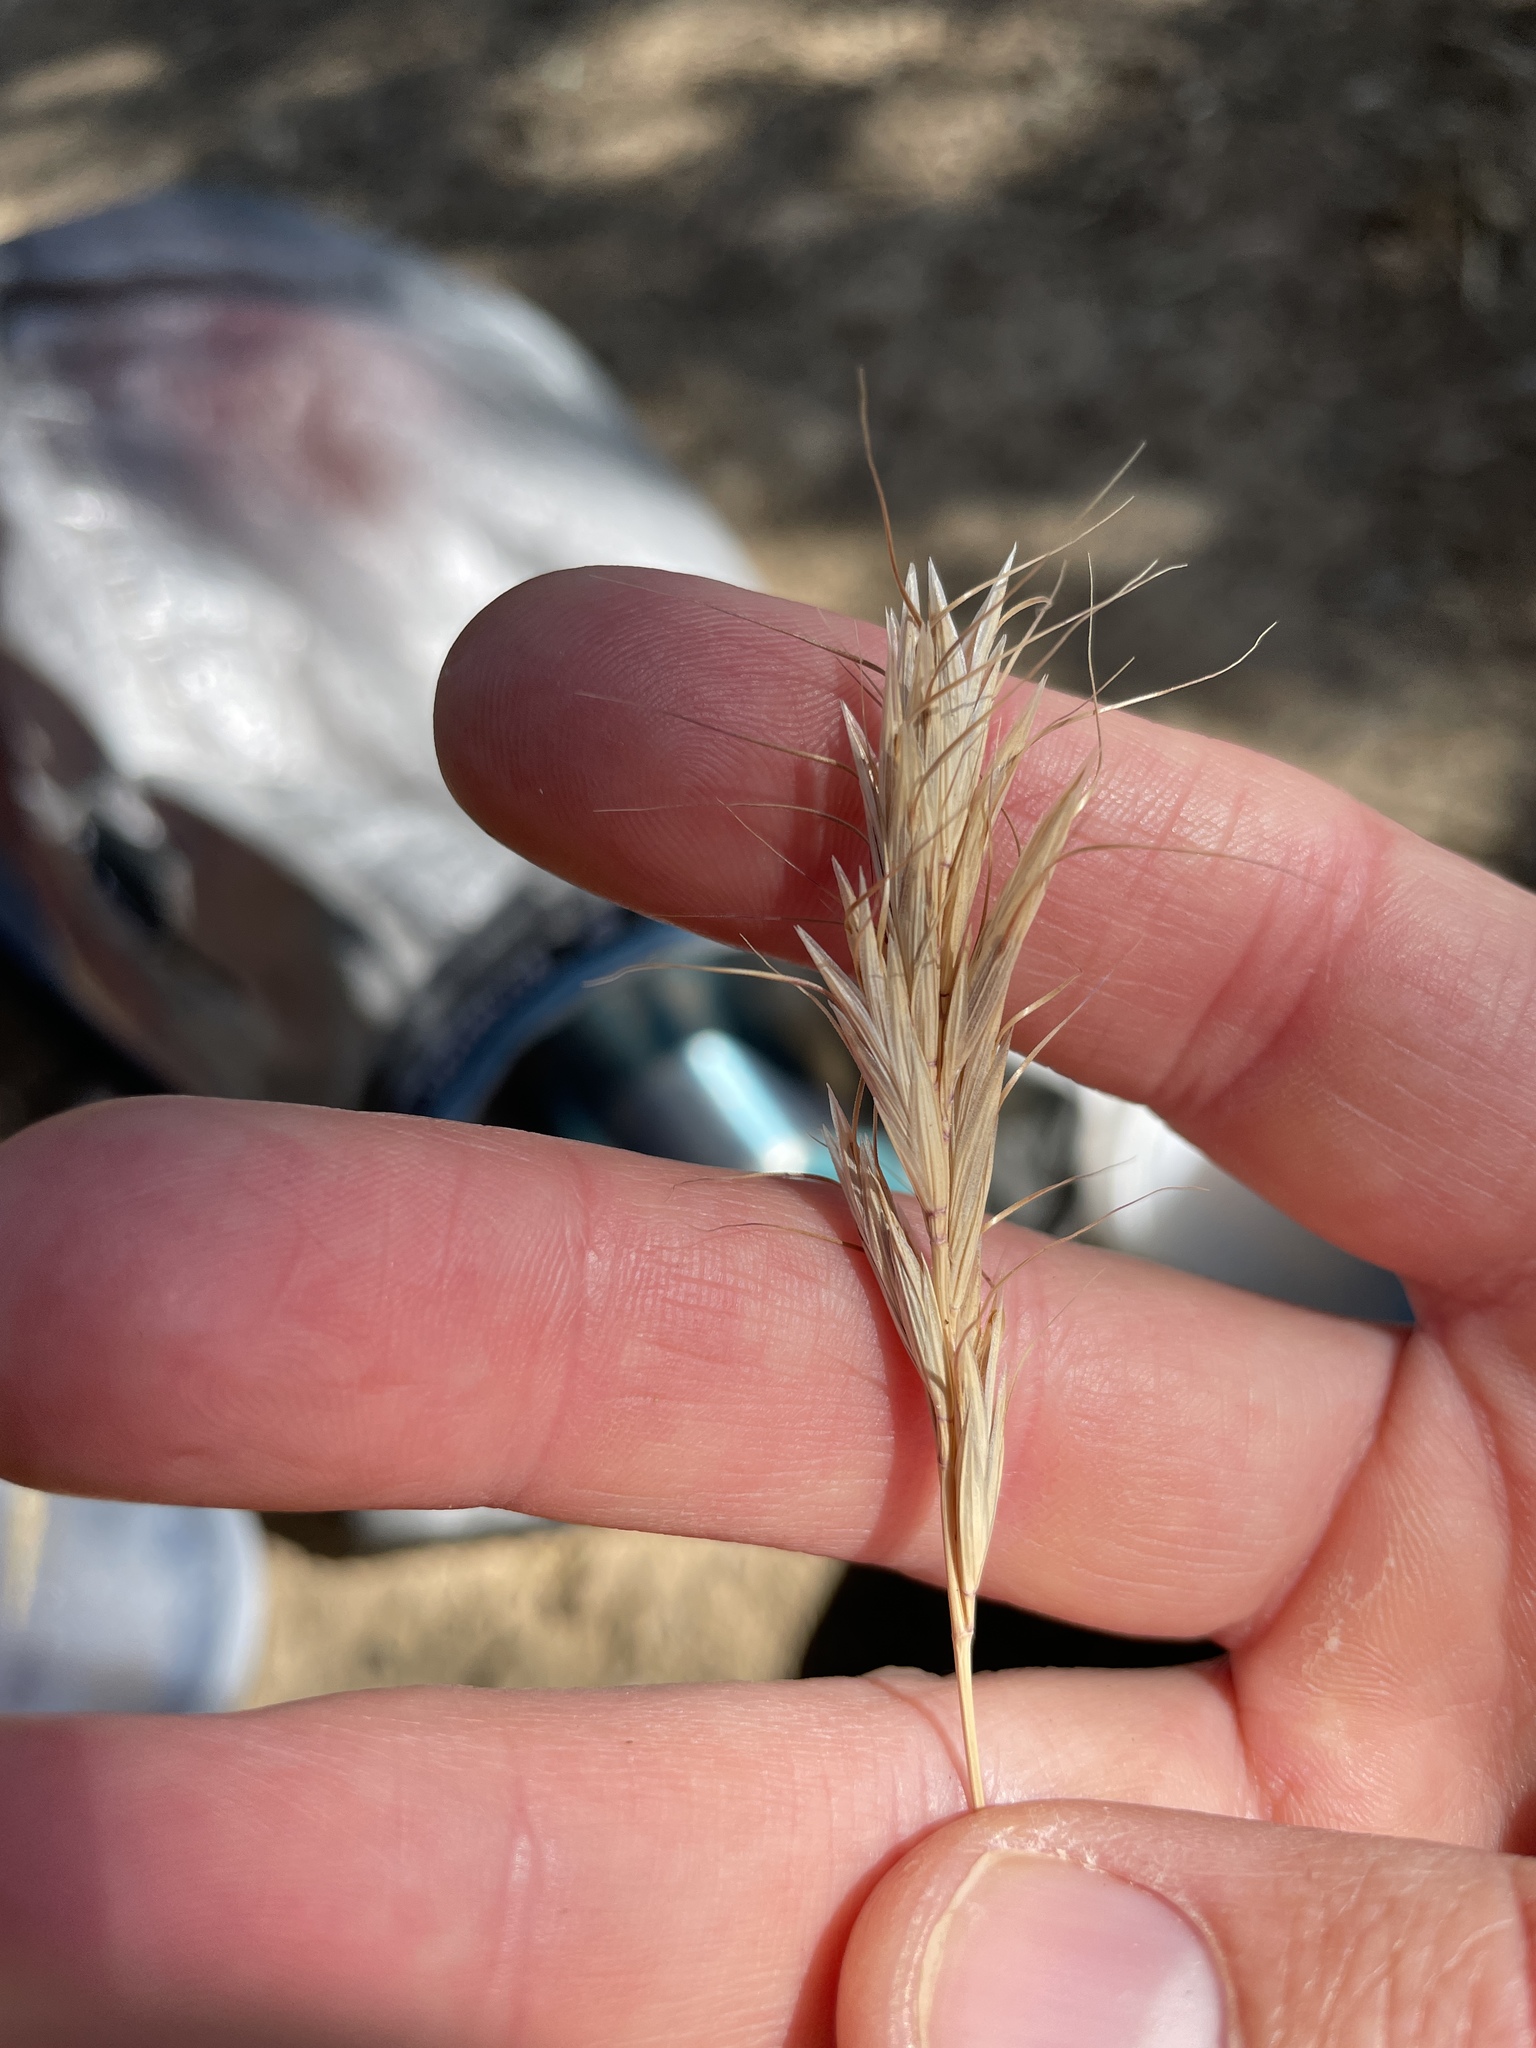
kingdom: Plantae
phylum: Tracheophyta
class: Liliopsida
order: Poales
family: Poaceae
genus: Bromus
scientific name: Bromus alopecuros
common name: Weedy brome
